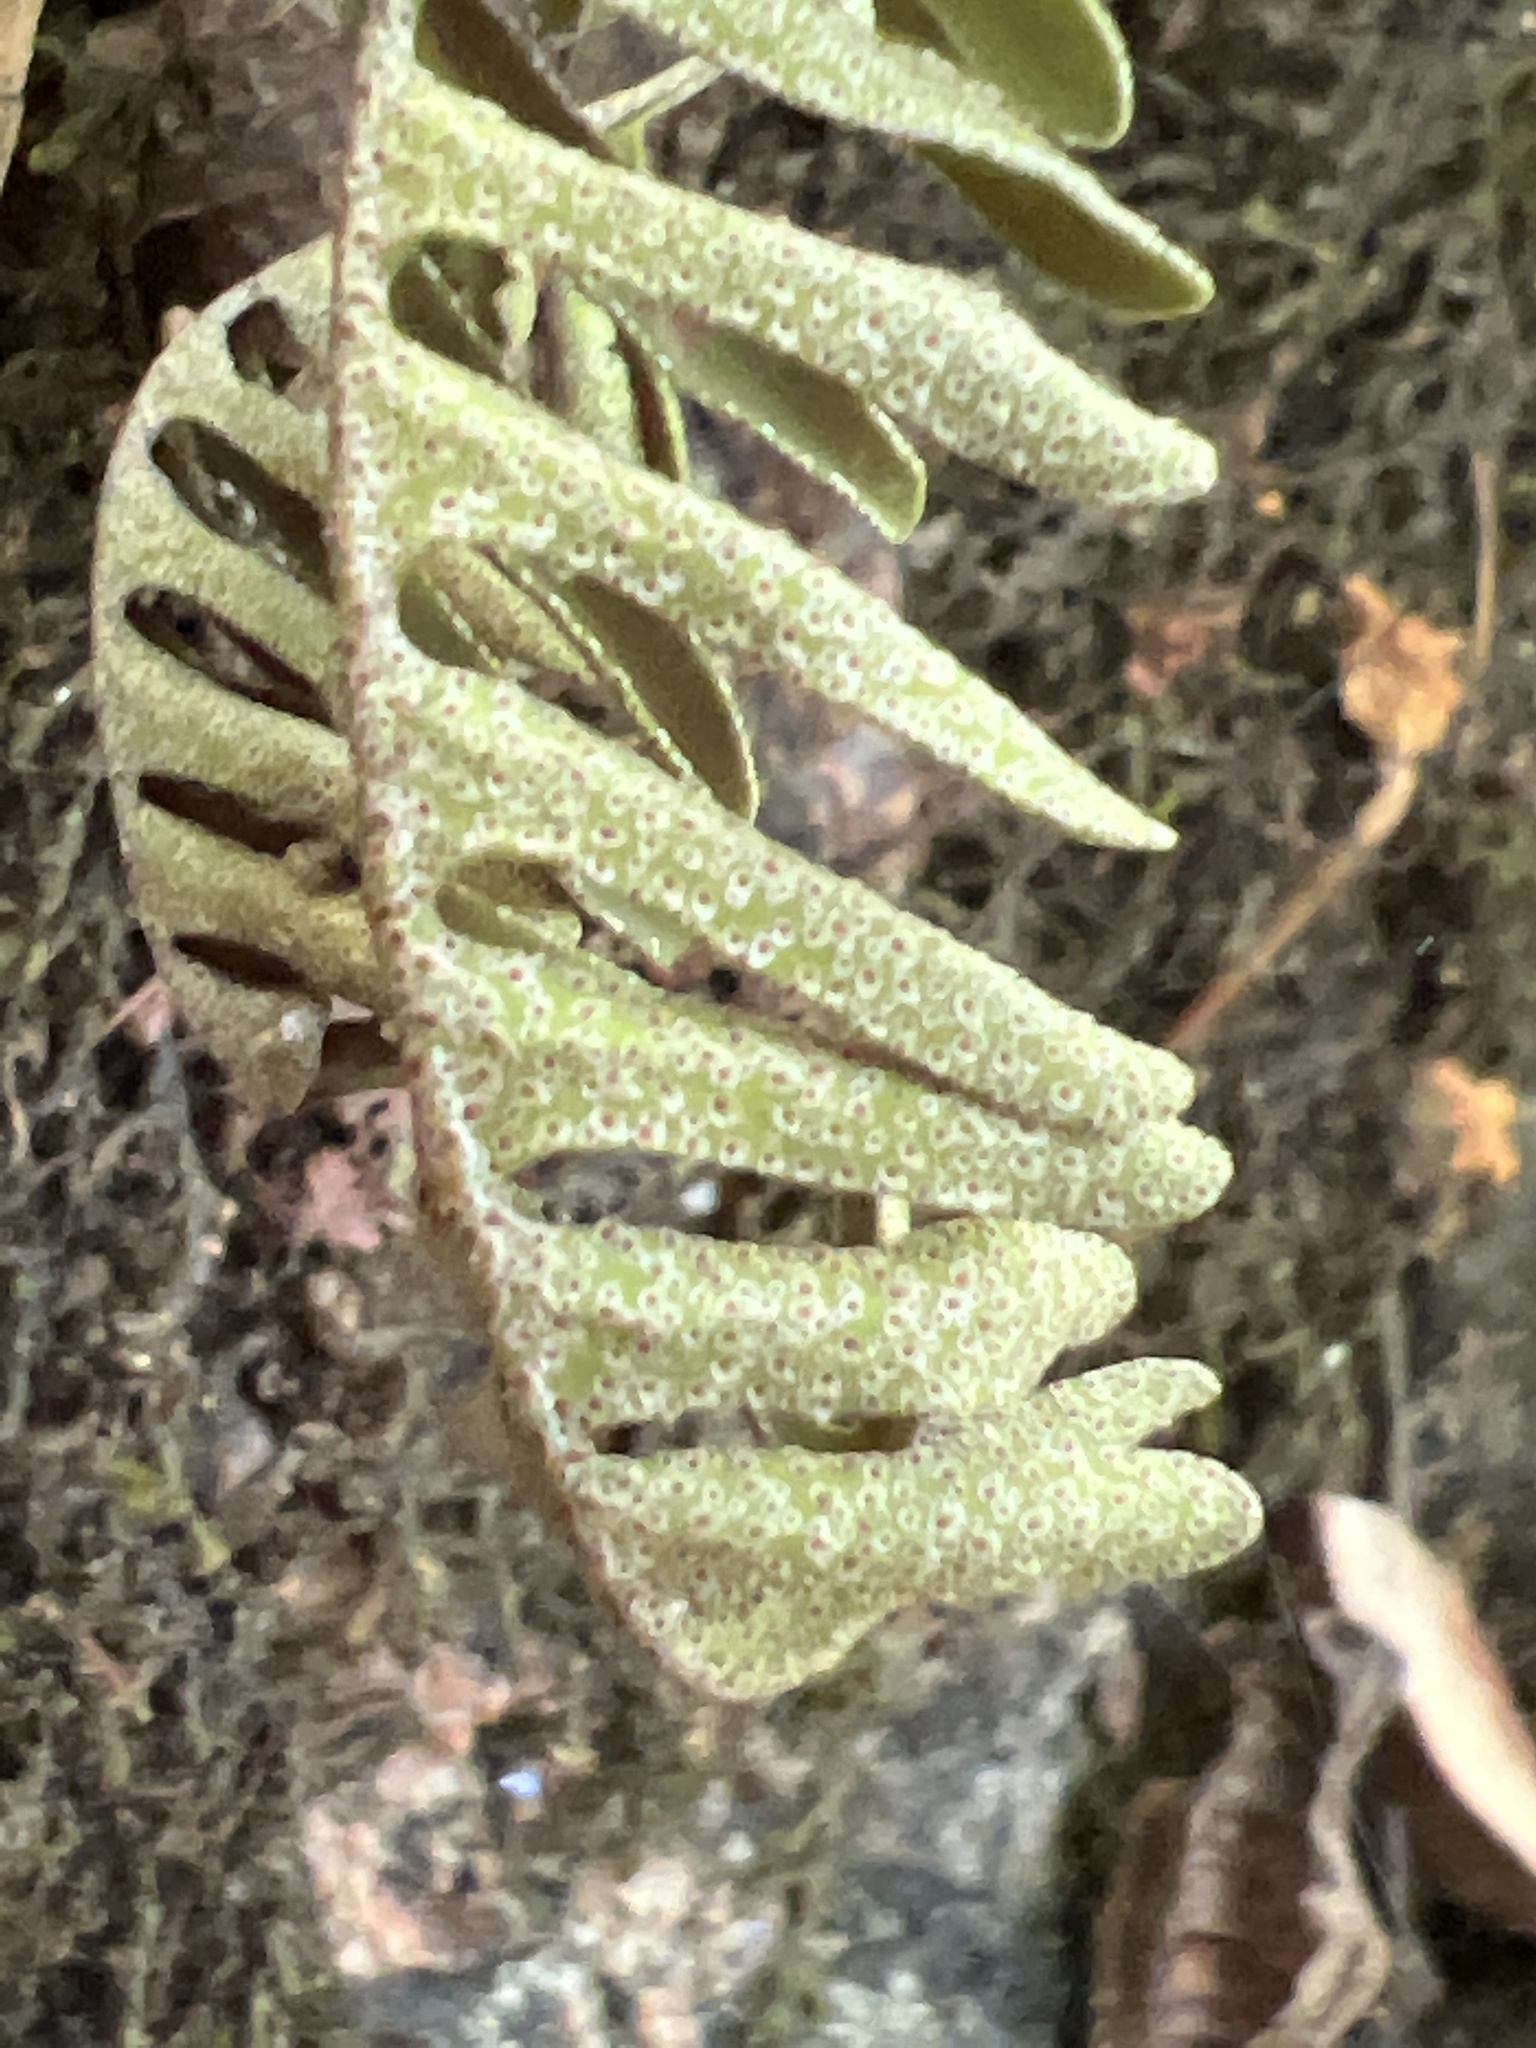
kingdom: Plantae
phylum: Tracheophyta
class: Polypodiopsida
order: Polypodiales
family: Polypodiaceae
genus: Pleopeltis
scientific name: Pleopeltis michauxiana
